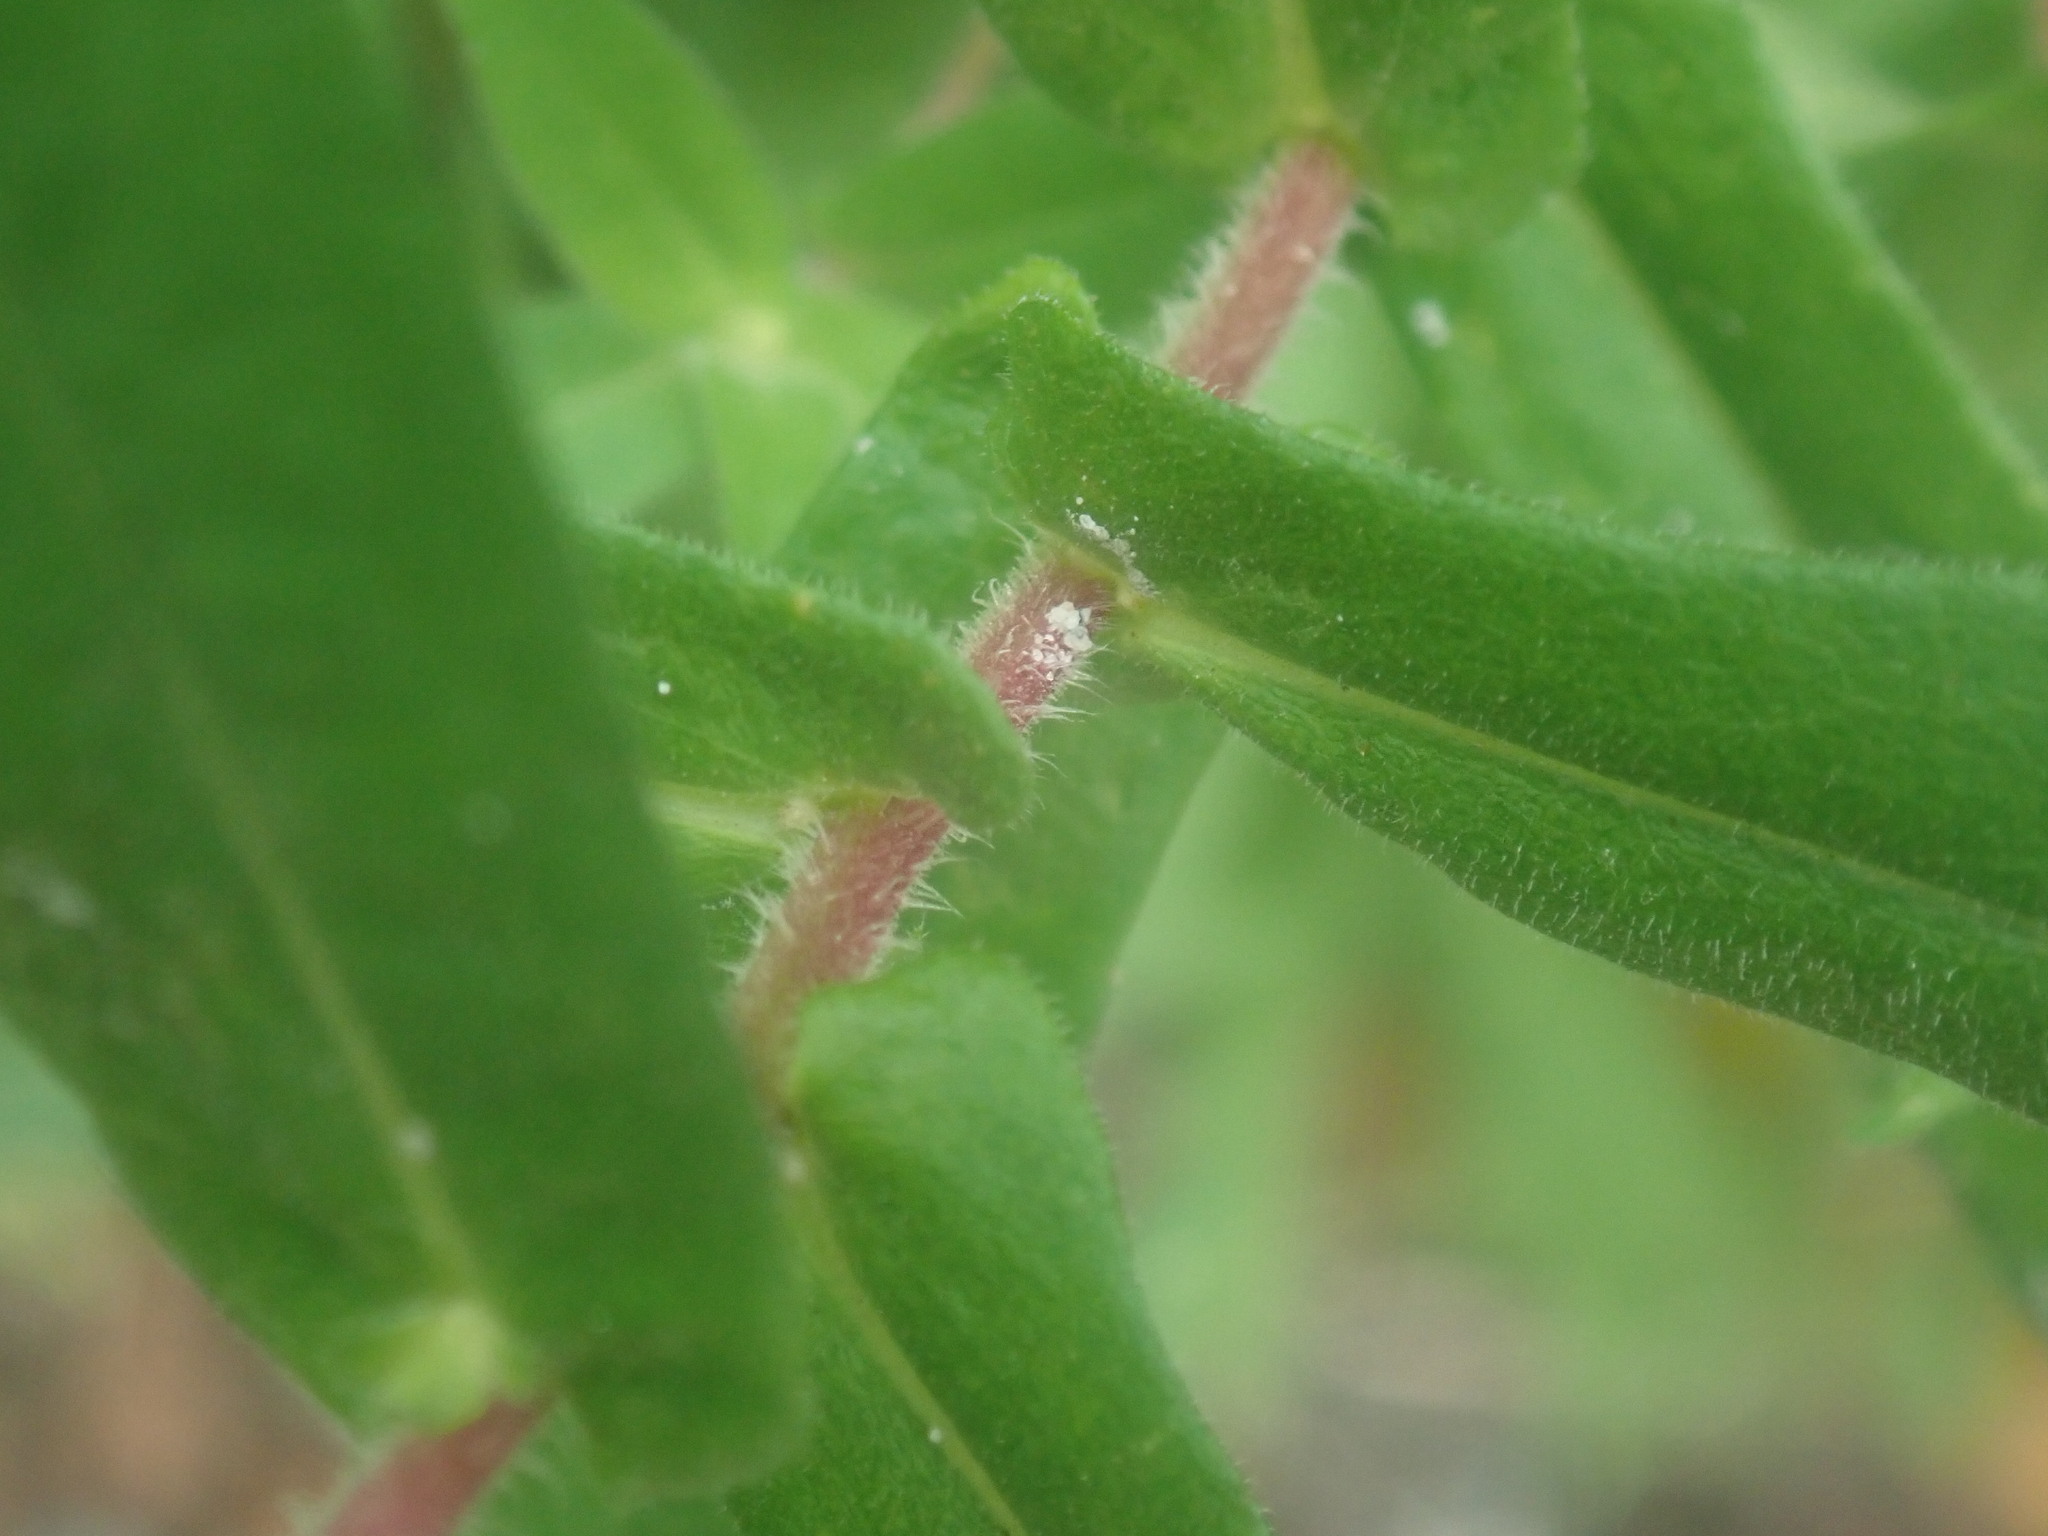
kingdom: Plantae
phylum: Tracheophyta
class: Magnoliopsida
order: Asterales
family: Asteraceae
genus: Symphyotrichum
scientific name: Symphyotrichum novae-angliae
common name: Michaelmas daisy
